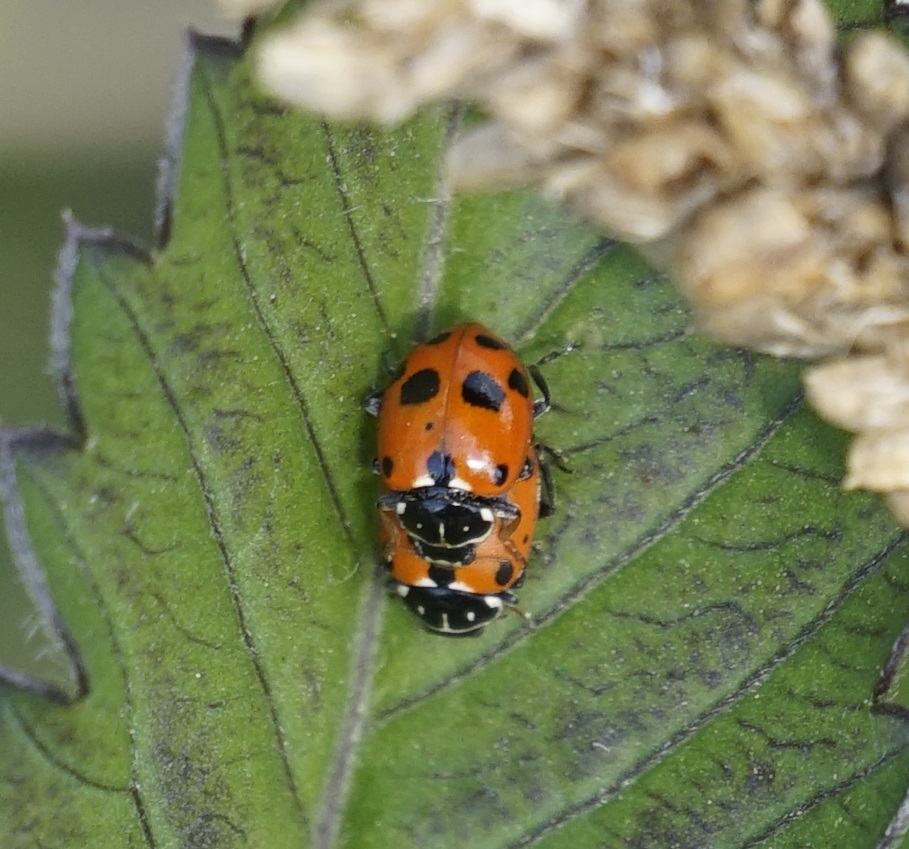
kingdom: Animalia
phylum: Arthropoda
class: Insecta
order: Coleoptera
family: Coccinellidae
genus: Hippodamia
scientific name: Hippodamia variegata
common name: Ladybird beetle
